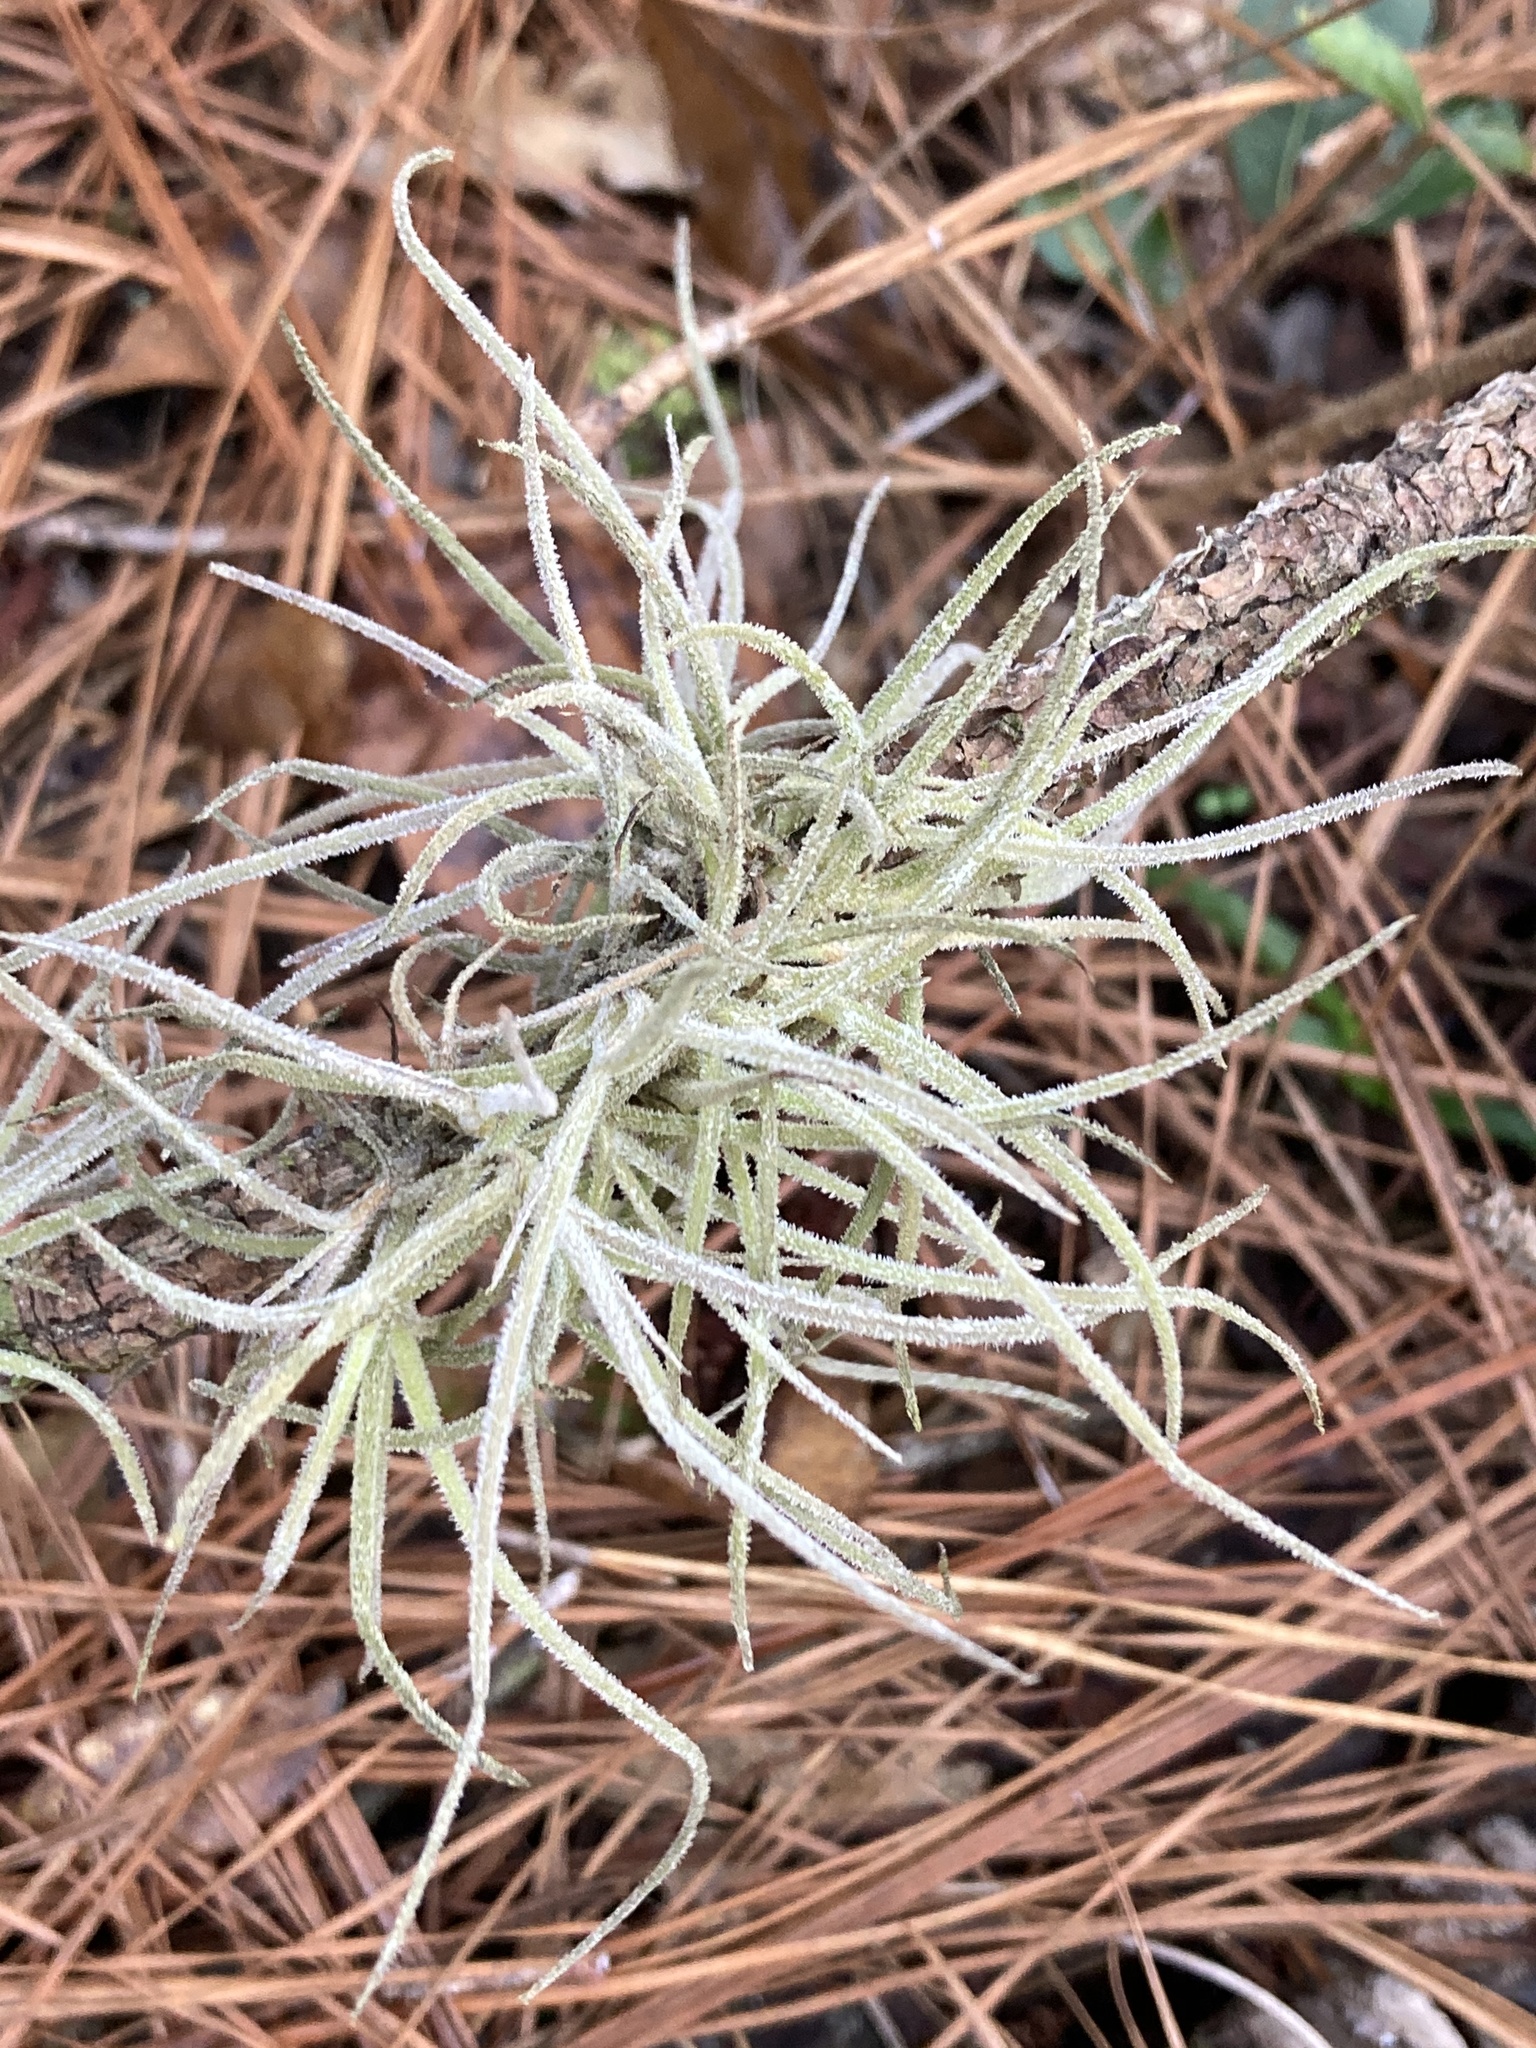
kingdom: Plantae
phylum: Tracheophyta
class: Liliopsida
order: Poales
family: Bromeliaceae
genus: Tillandsia
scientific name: Tillandsia recurvata
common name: Small ballmoss
